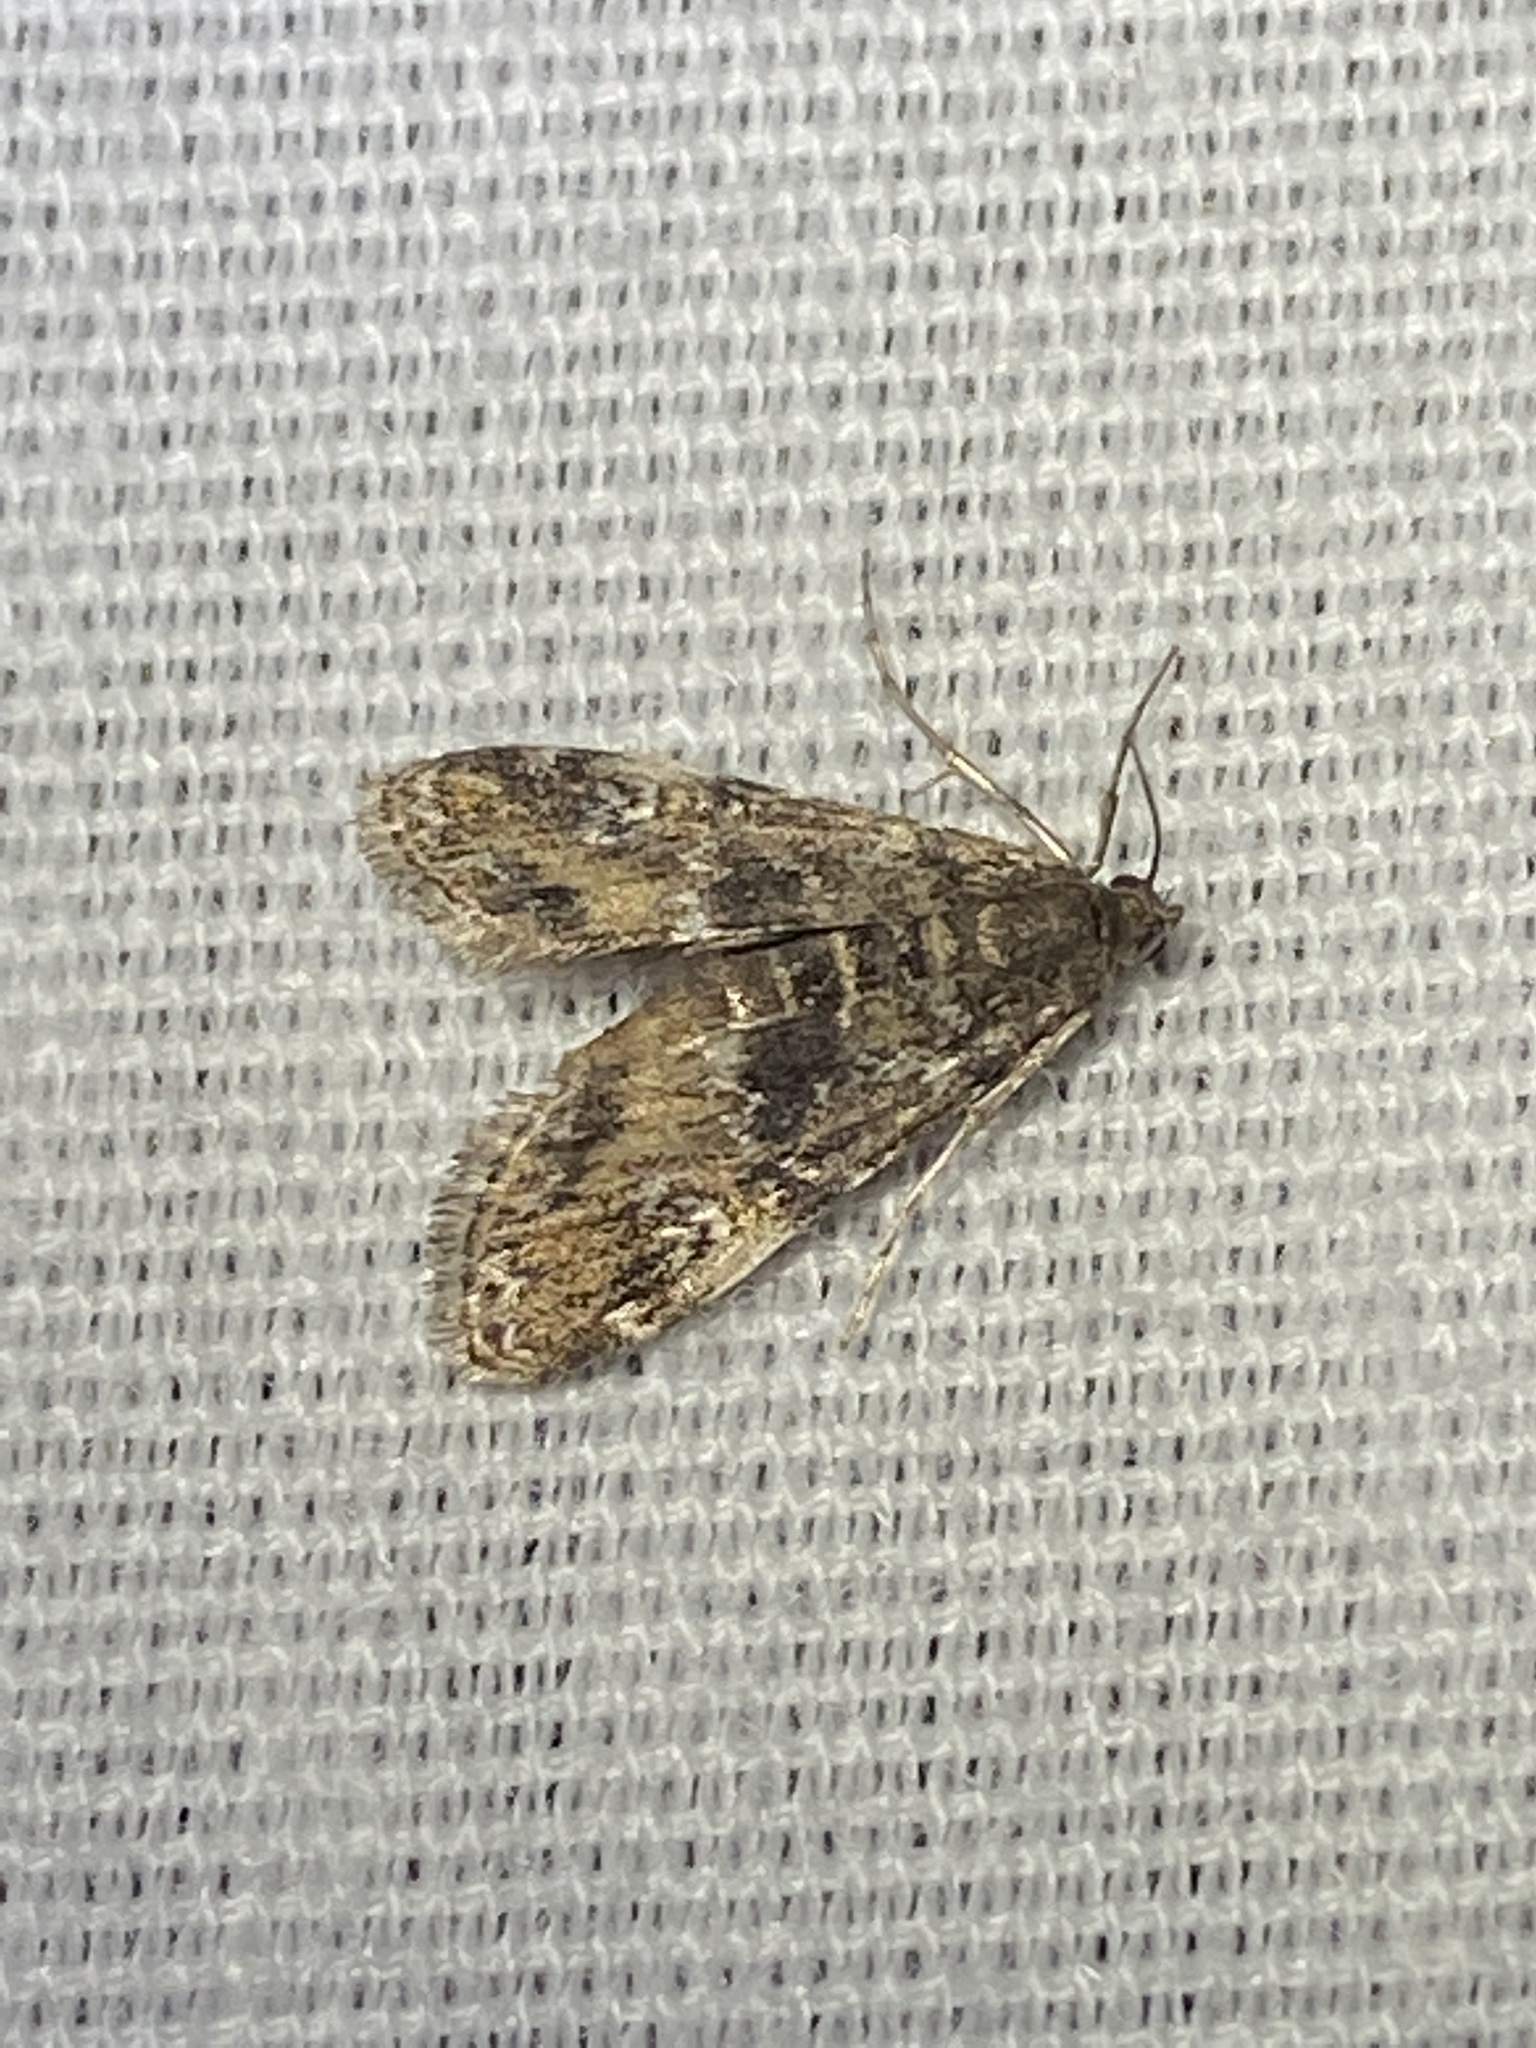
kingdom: Animalia
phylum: Arthropoda
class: Insecta
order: Lepidoptera
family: Crambidae
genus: Elophila
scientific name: Elophila obliteralis
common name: Waterlily leafcutter moth
